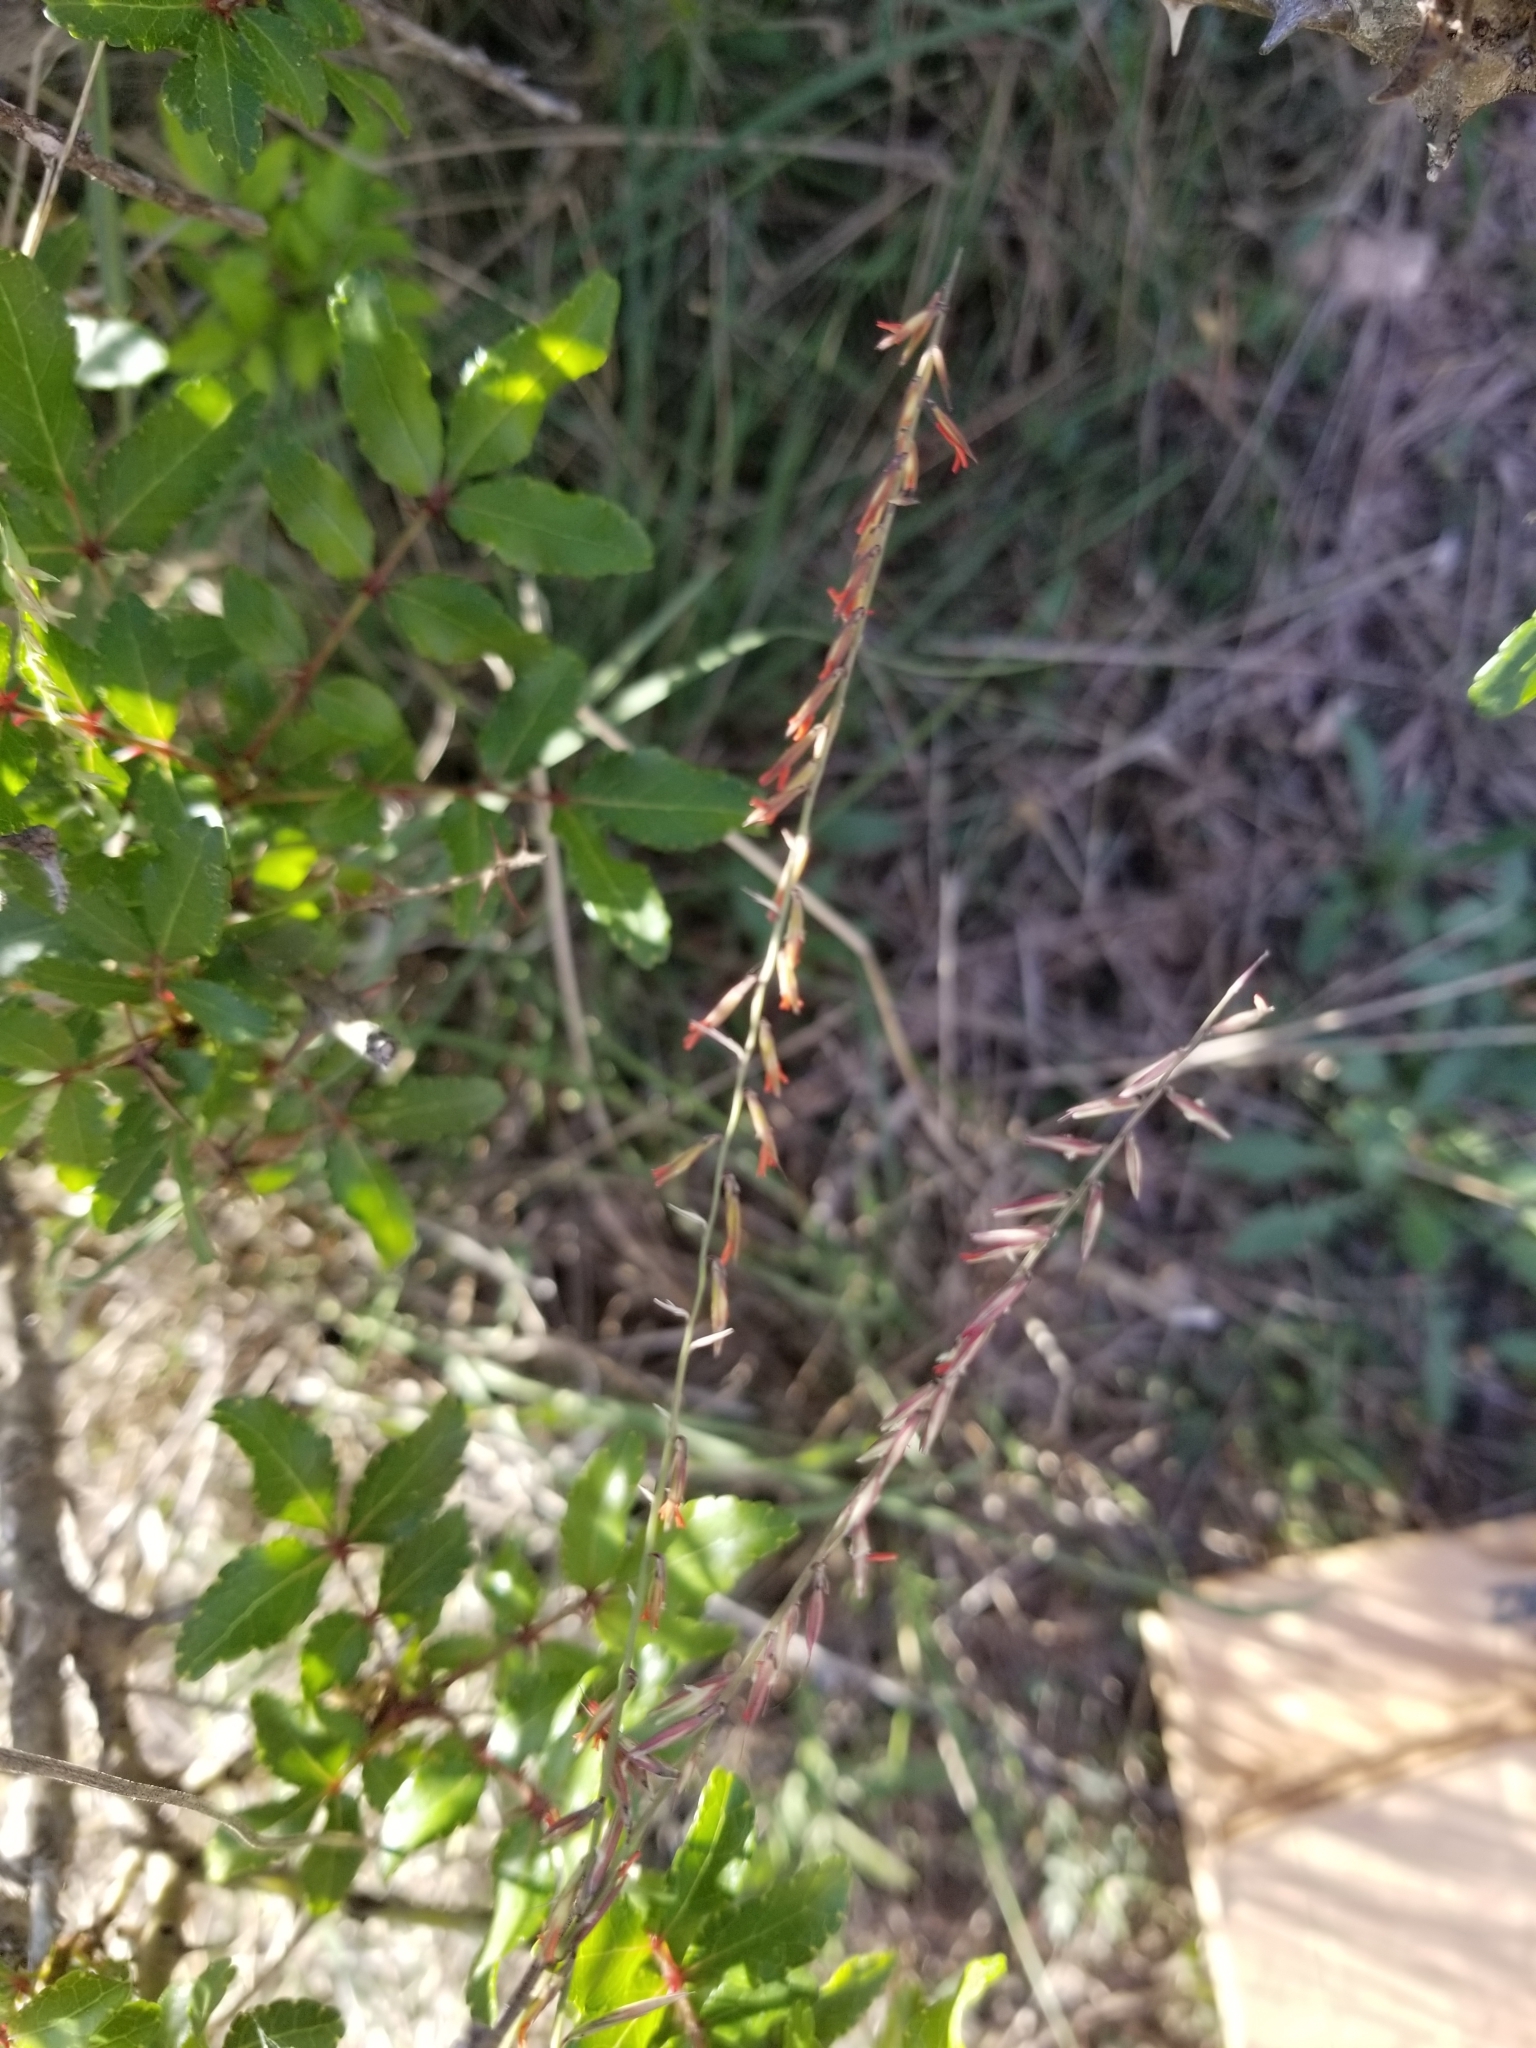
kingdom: Plantae
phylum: Tracheophyta
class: Liliopsida
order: Poales
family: Poaceae
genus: Bouteloua
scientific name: Bouteloua curtipendula
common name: Side-oats grama
